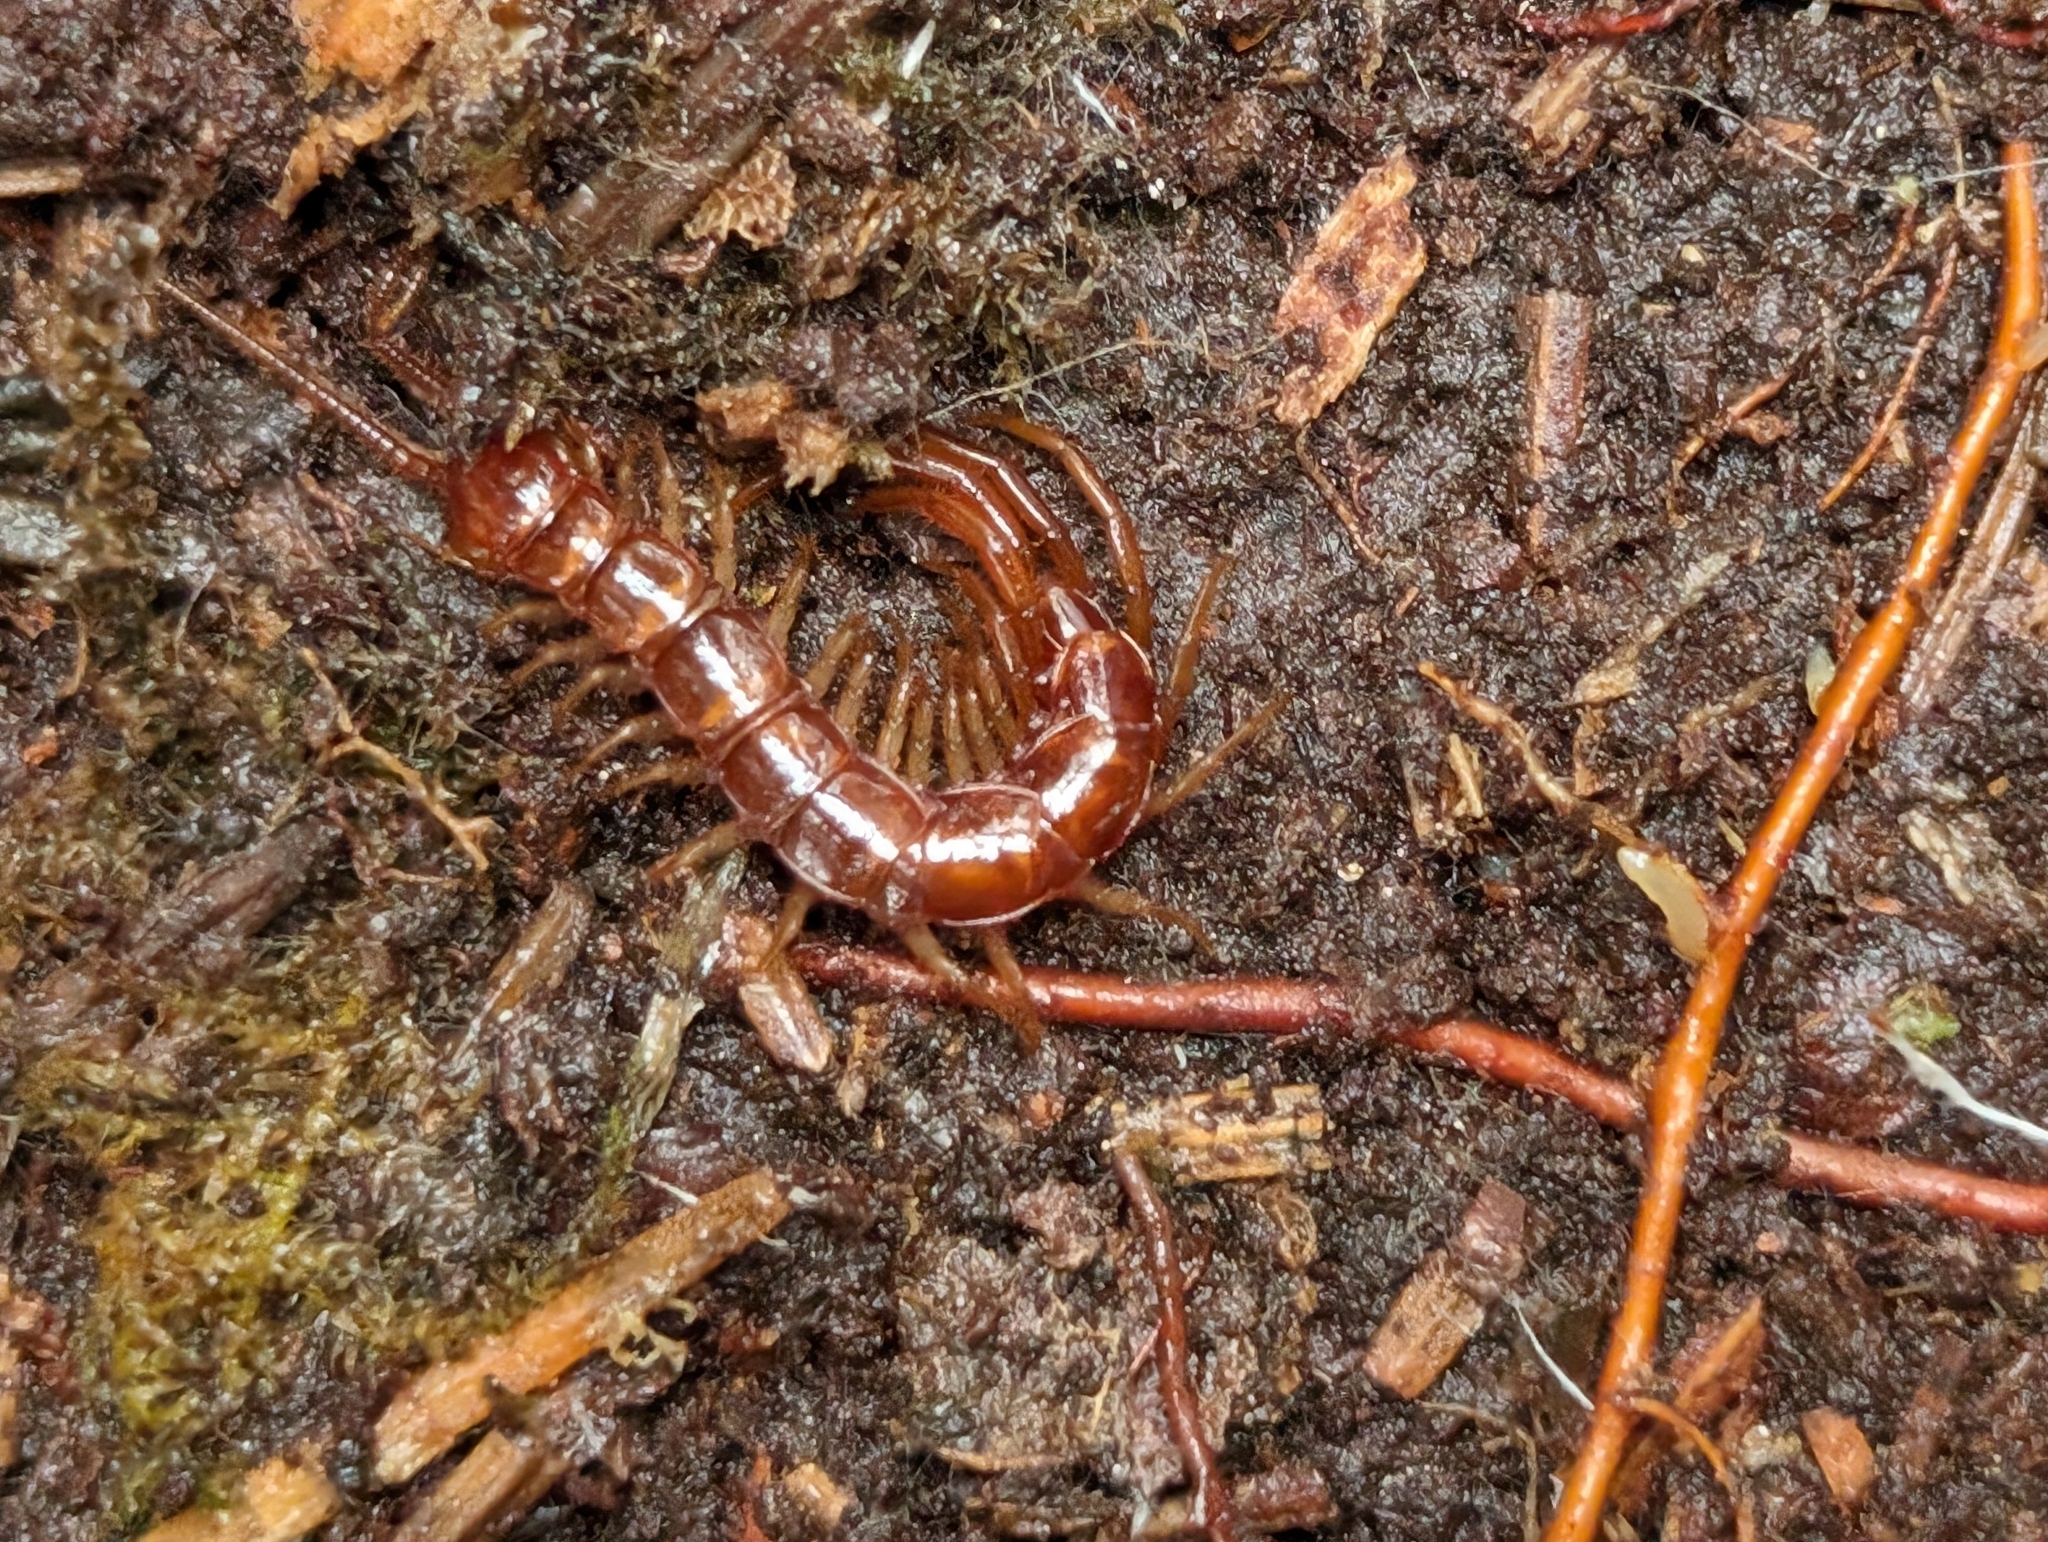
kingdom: Animalia
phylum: Arthropoda
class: Chilopoda
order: Lithobiomorpha
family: Lithobiidae
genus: Lithobius
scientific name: Lithobius forficatus
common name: Centipede
